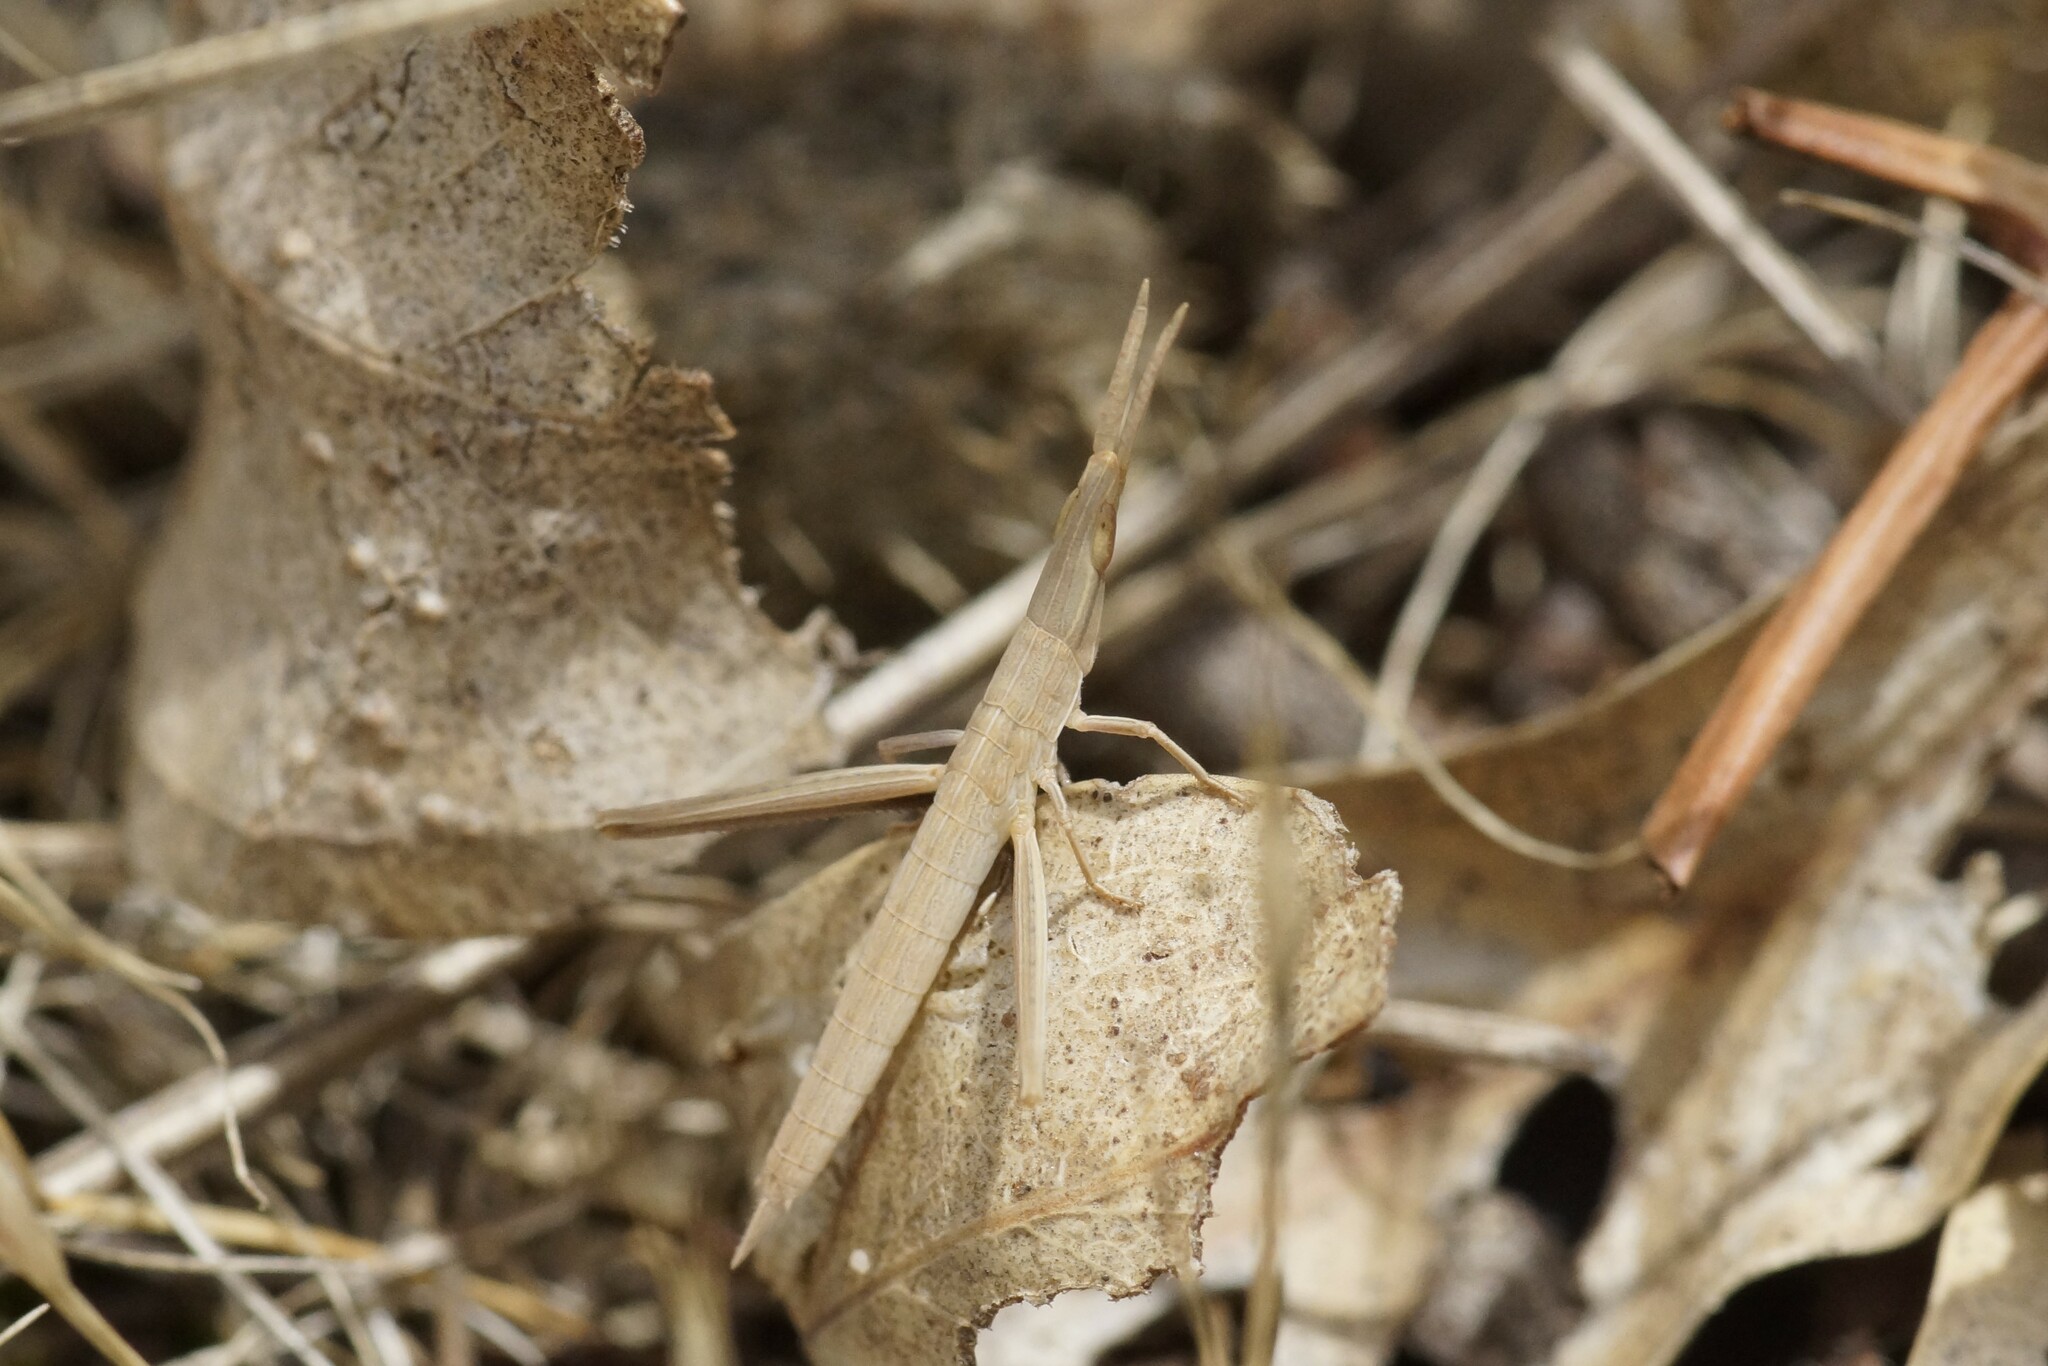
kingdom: Animalia
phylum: Arthropoda
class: Insecta
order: Orthoptera
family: Acrididae
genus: Acrida
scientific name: Acrida conica
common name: Giant green slantface
